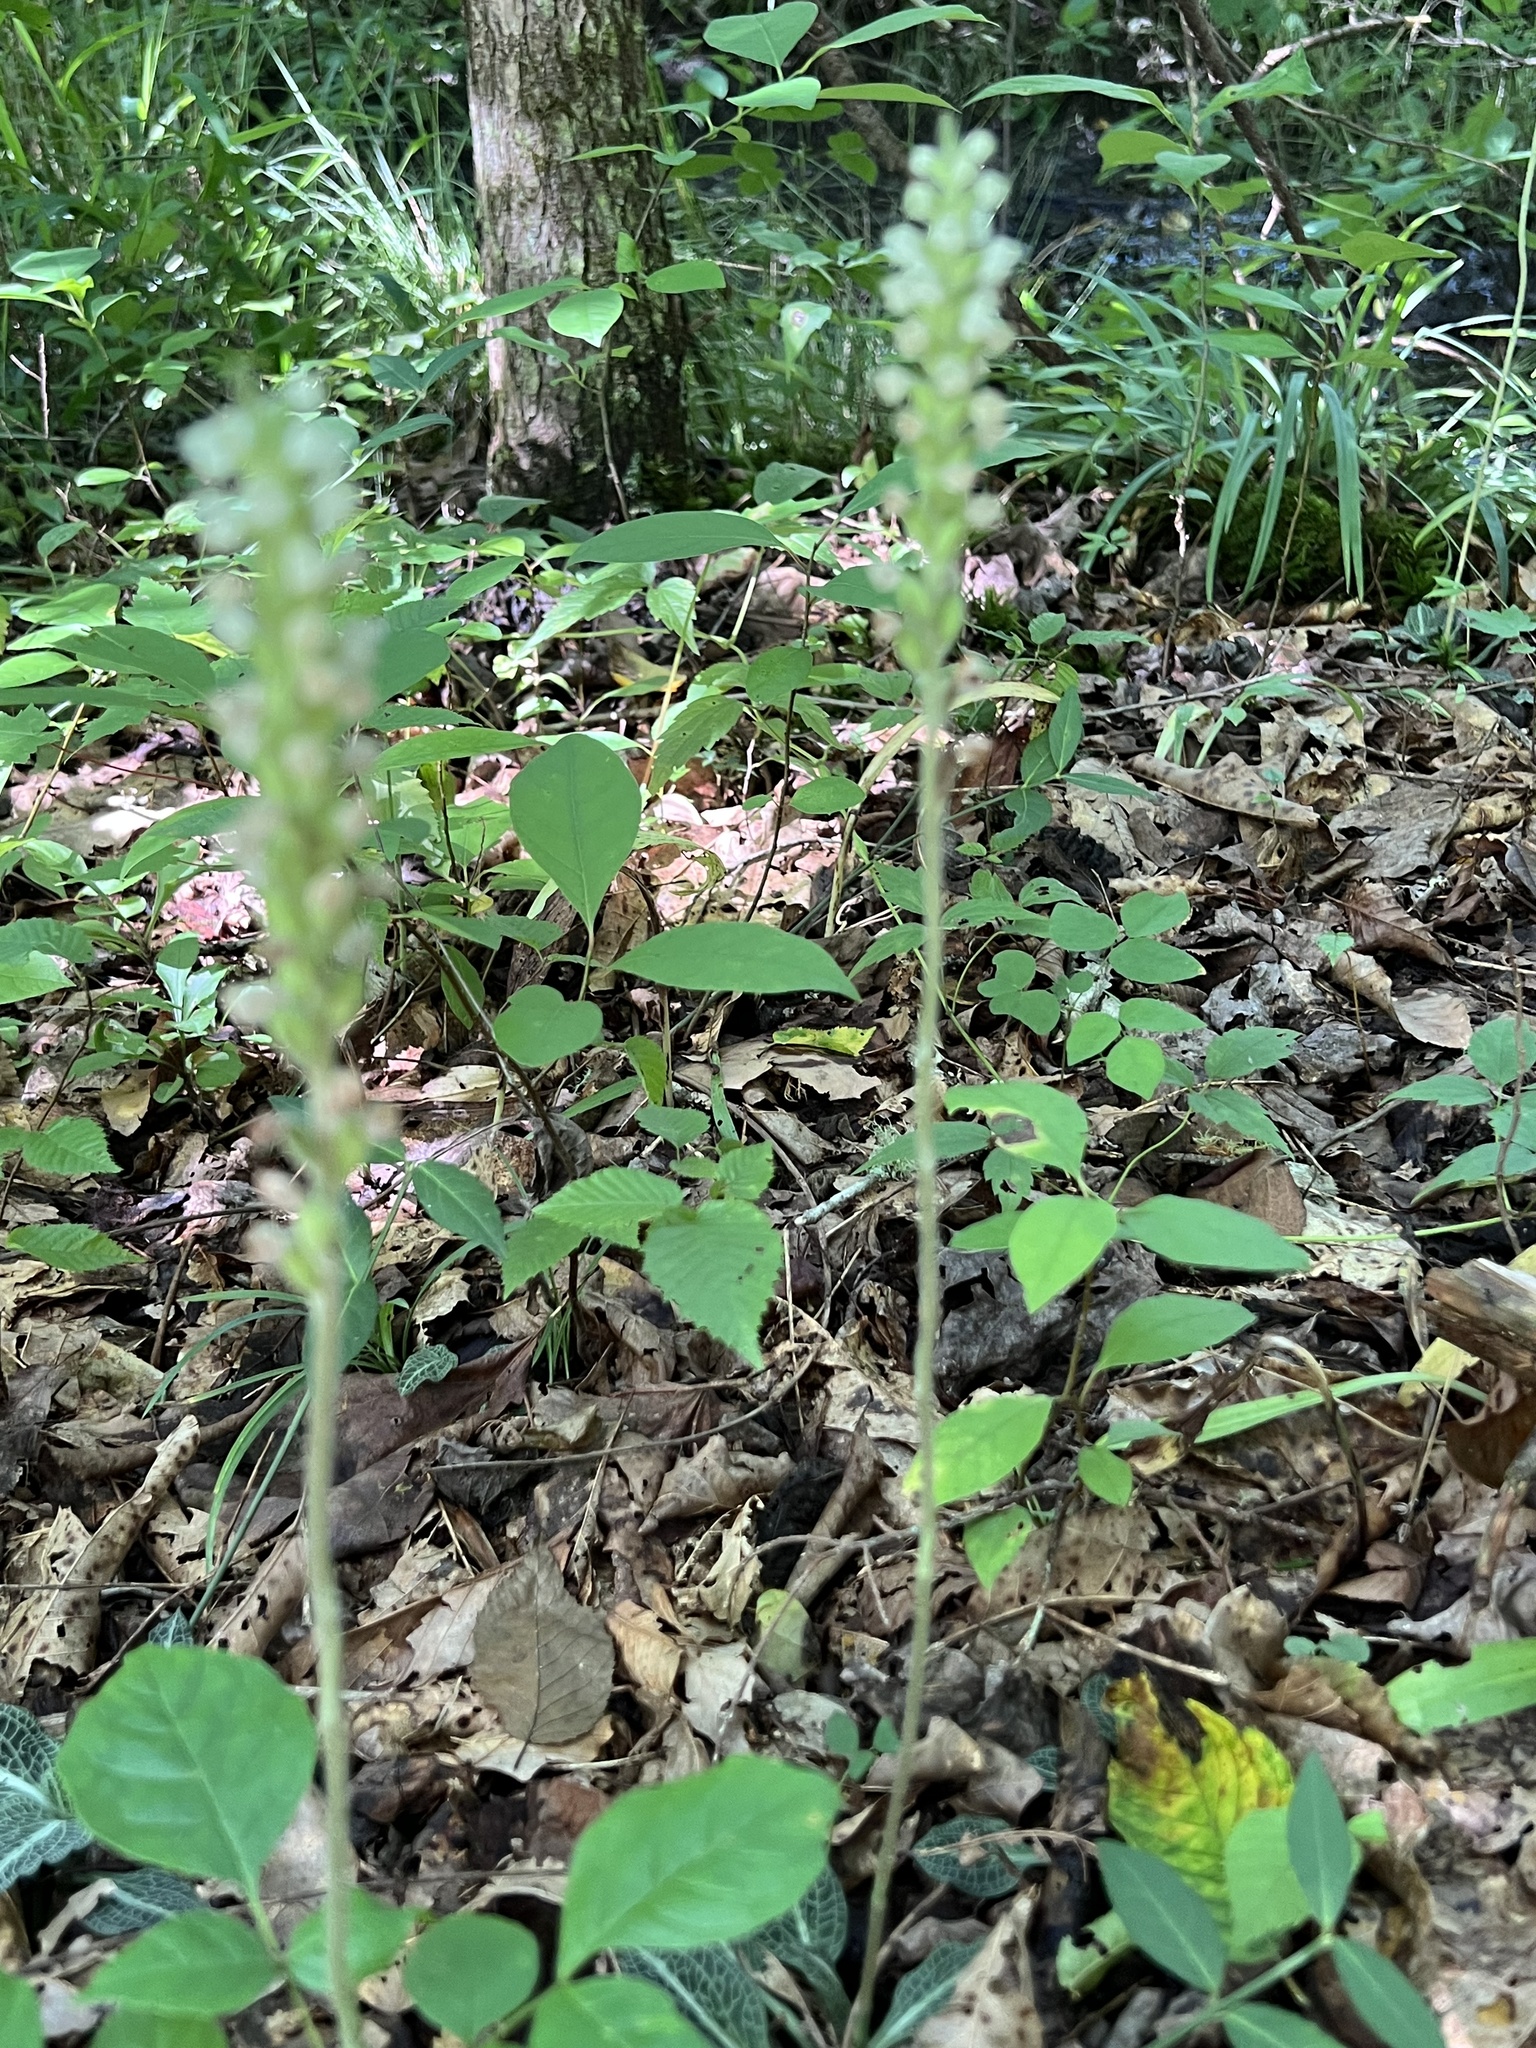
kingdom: Plantae
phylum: Tracheophyta
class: Liliopsida
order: Asparagales
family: Orchidaceae
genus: Goodyera
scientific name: Goodyera pubescens
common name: Downy rattlesnake-plantain
